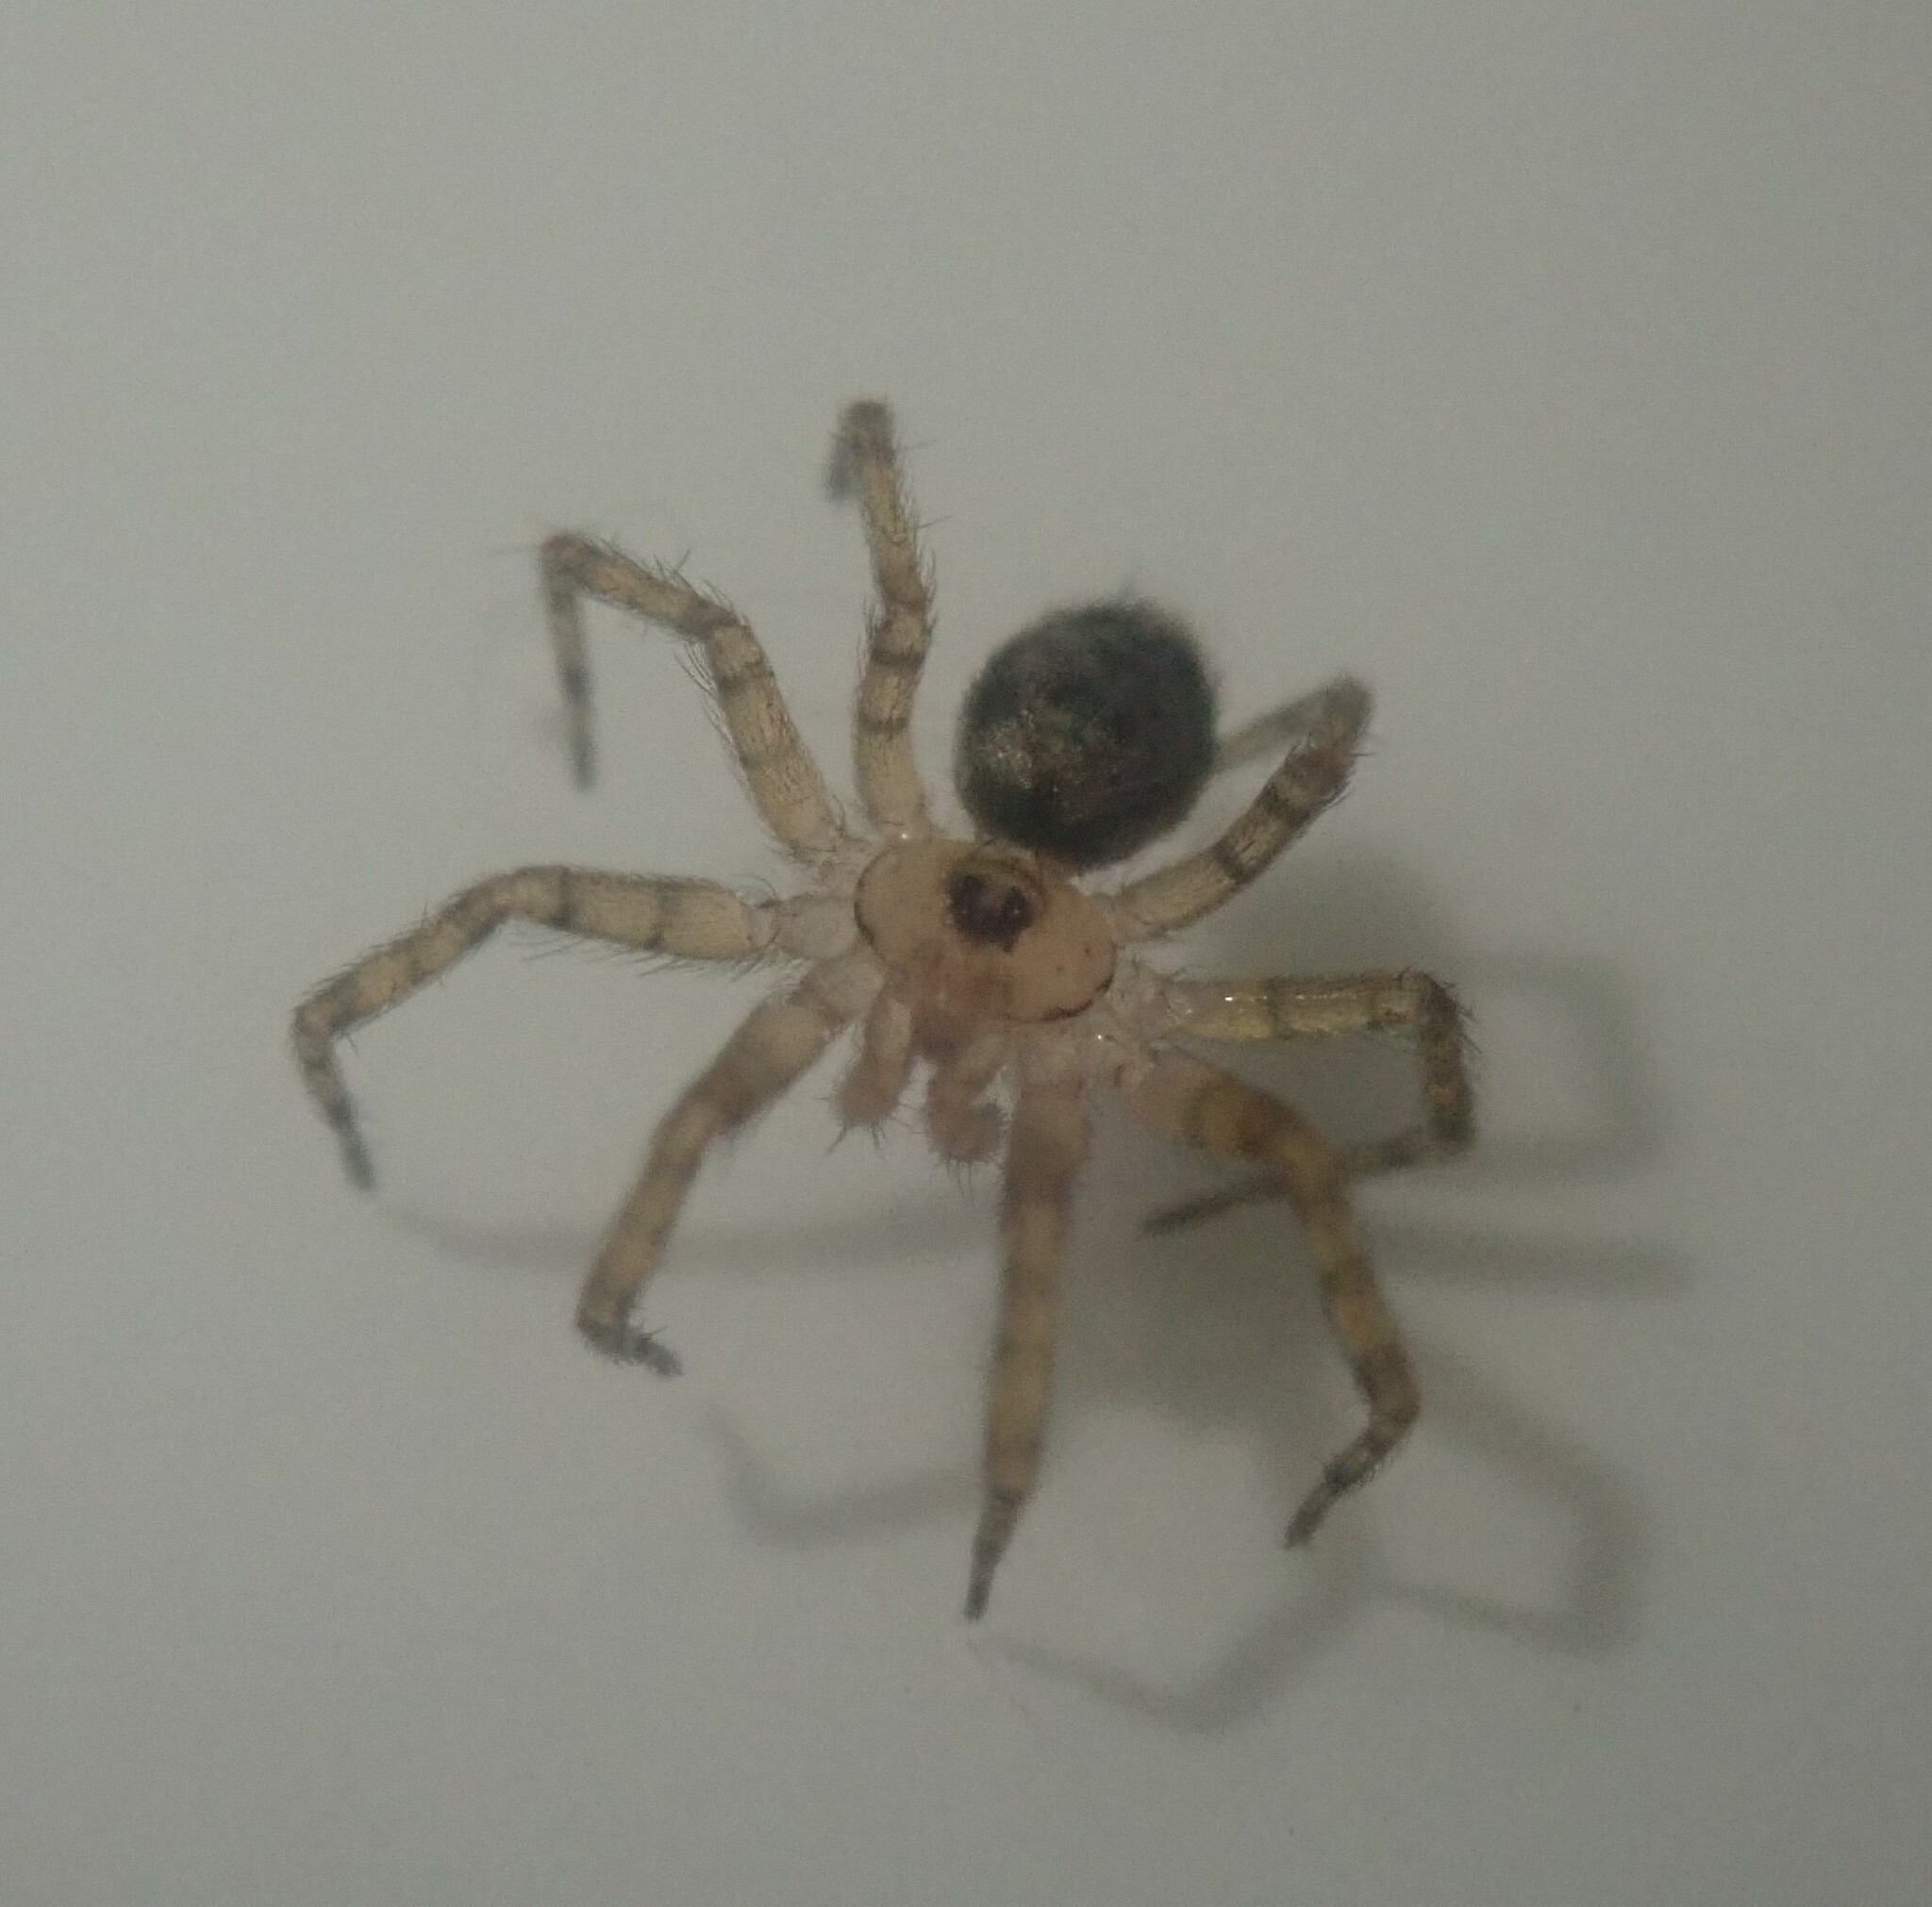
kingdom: Animalia
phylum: Arthropoda
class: Arachnida
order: Araneae
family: Oecobiidae
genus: Oecobius
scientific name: Oecobius navus
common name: Flatmesh weaver
